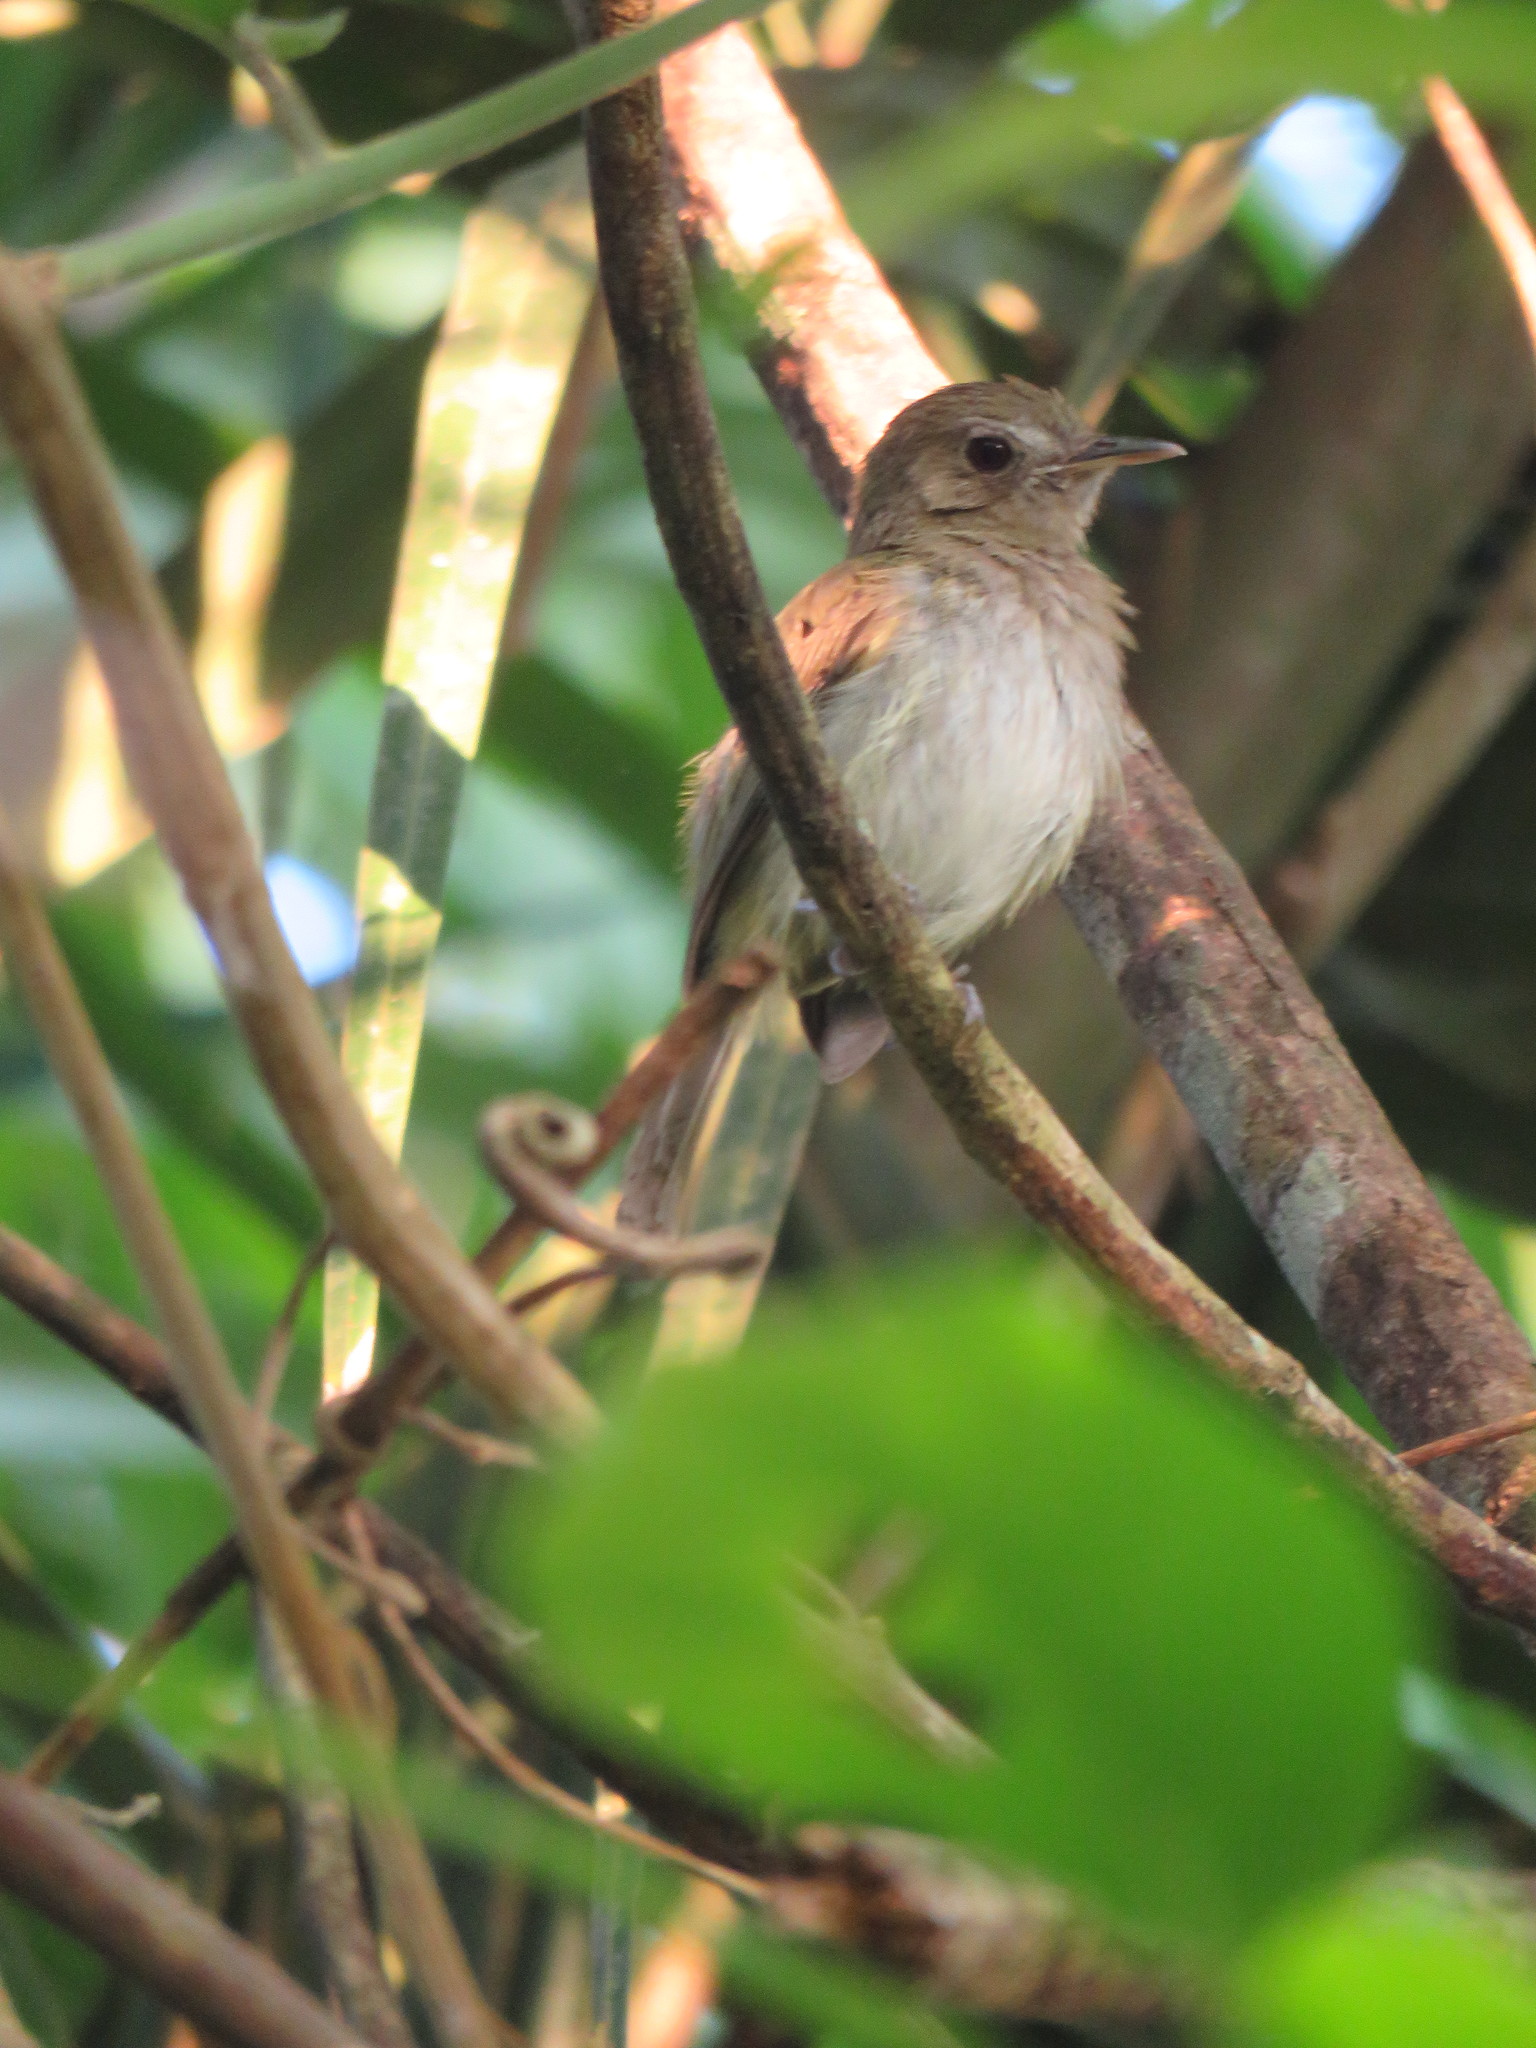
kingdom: Animalia
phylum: Chordata
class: Aves
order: Passeriformes
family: Tyrannidae
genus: Casiornis
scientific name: Casiornis rufus
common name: Rufous casiornis
